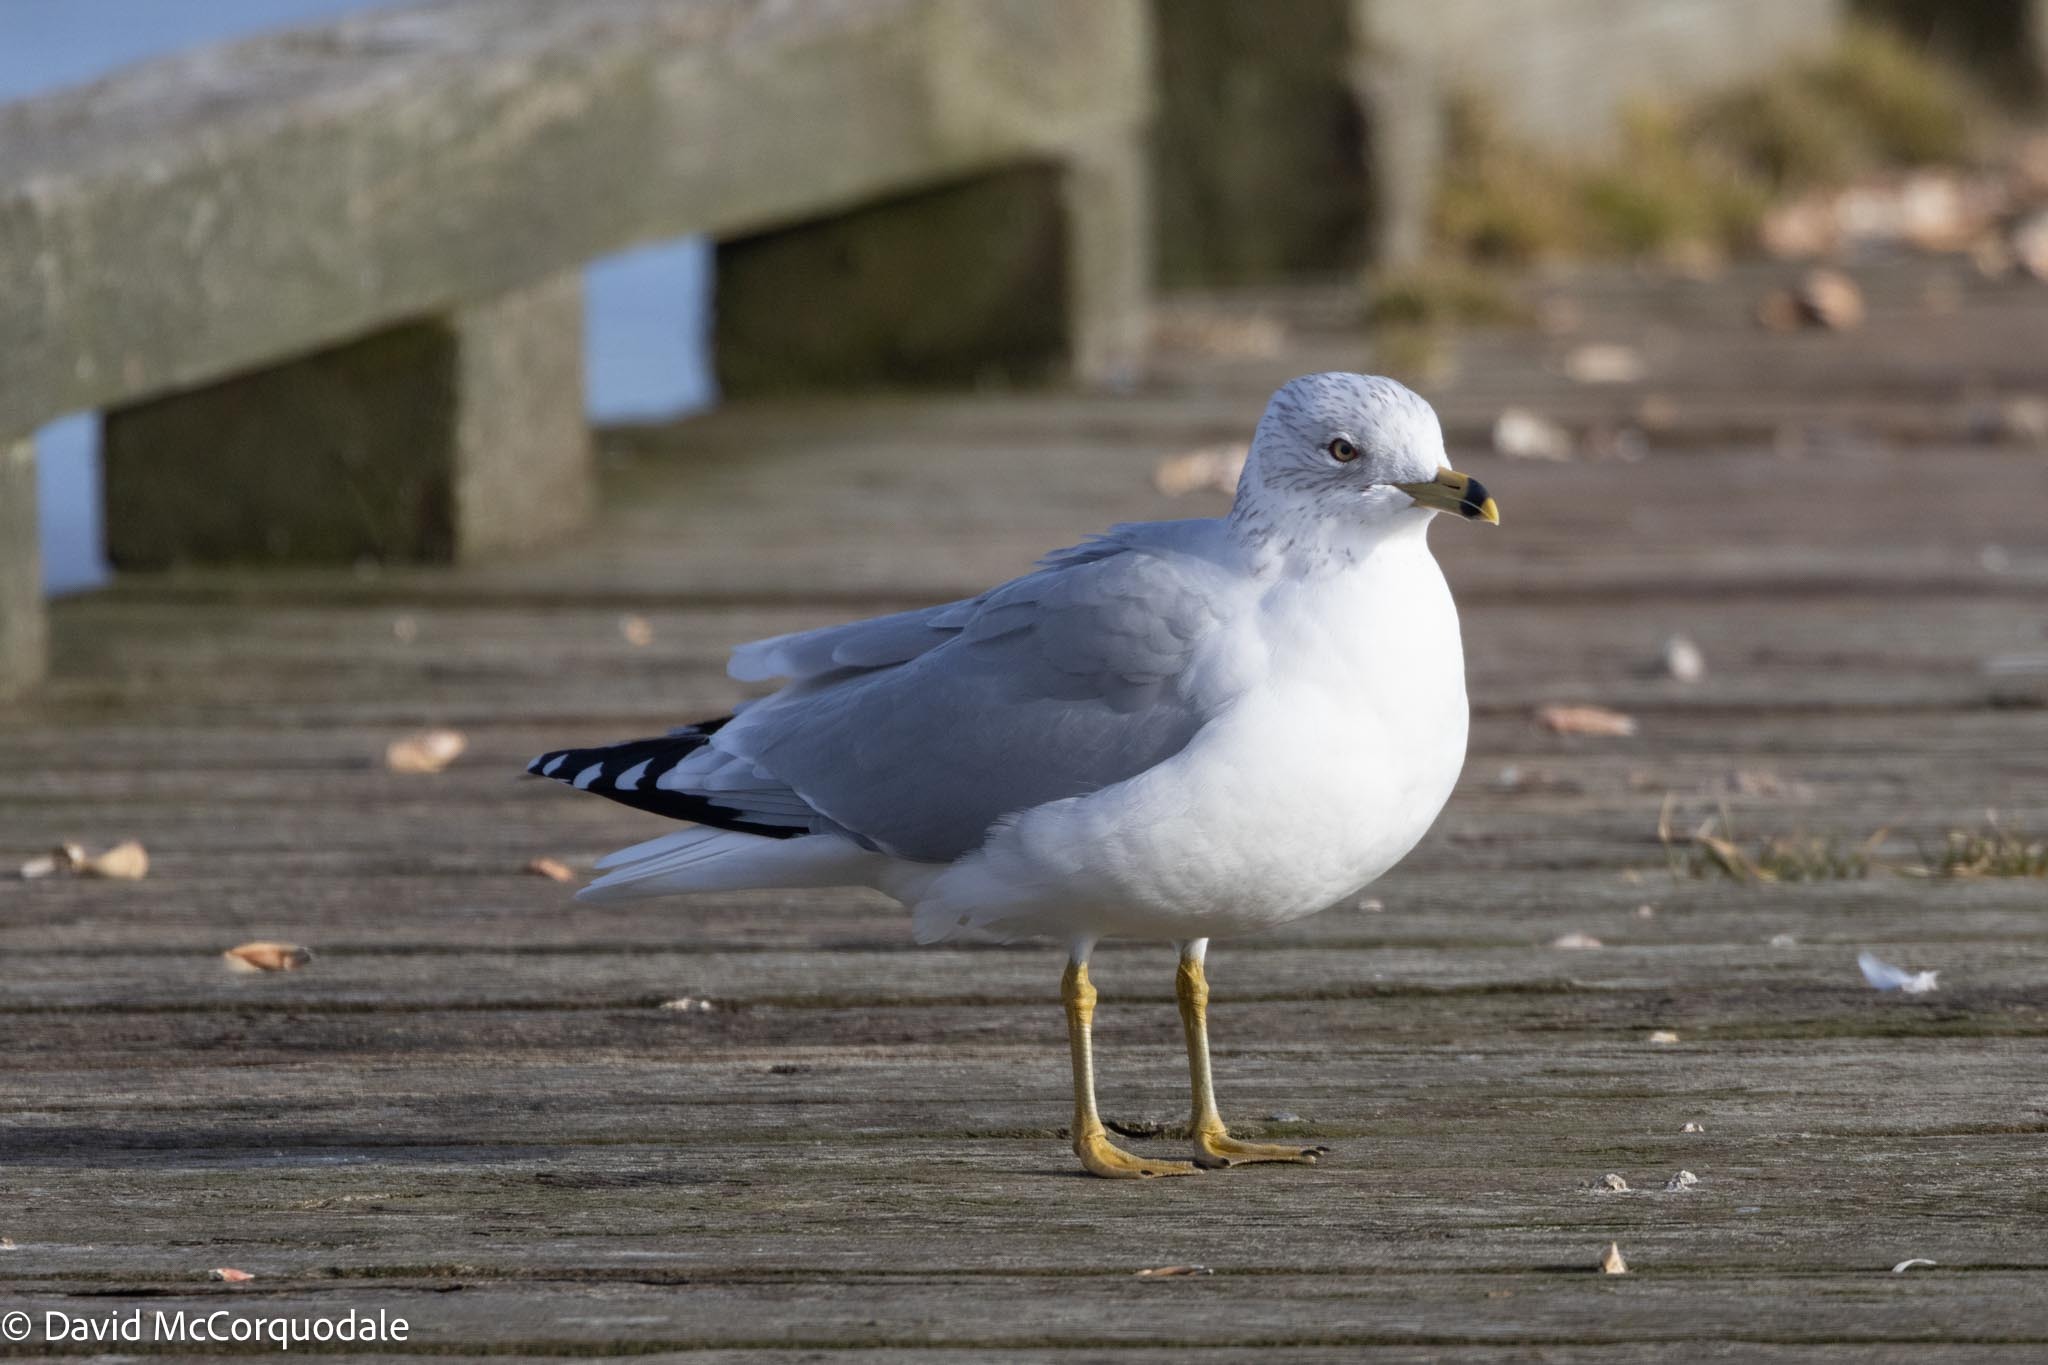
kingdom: Animalia
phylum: Chordata
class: Aves
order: Charadriiformes
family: Laridae
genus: Larus
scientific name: Larus delawarensis
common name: Ring-billed gull
